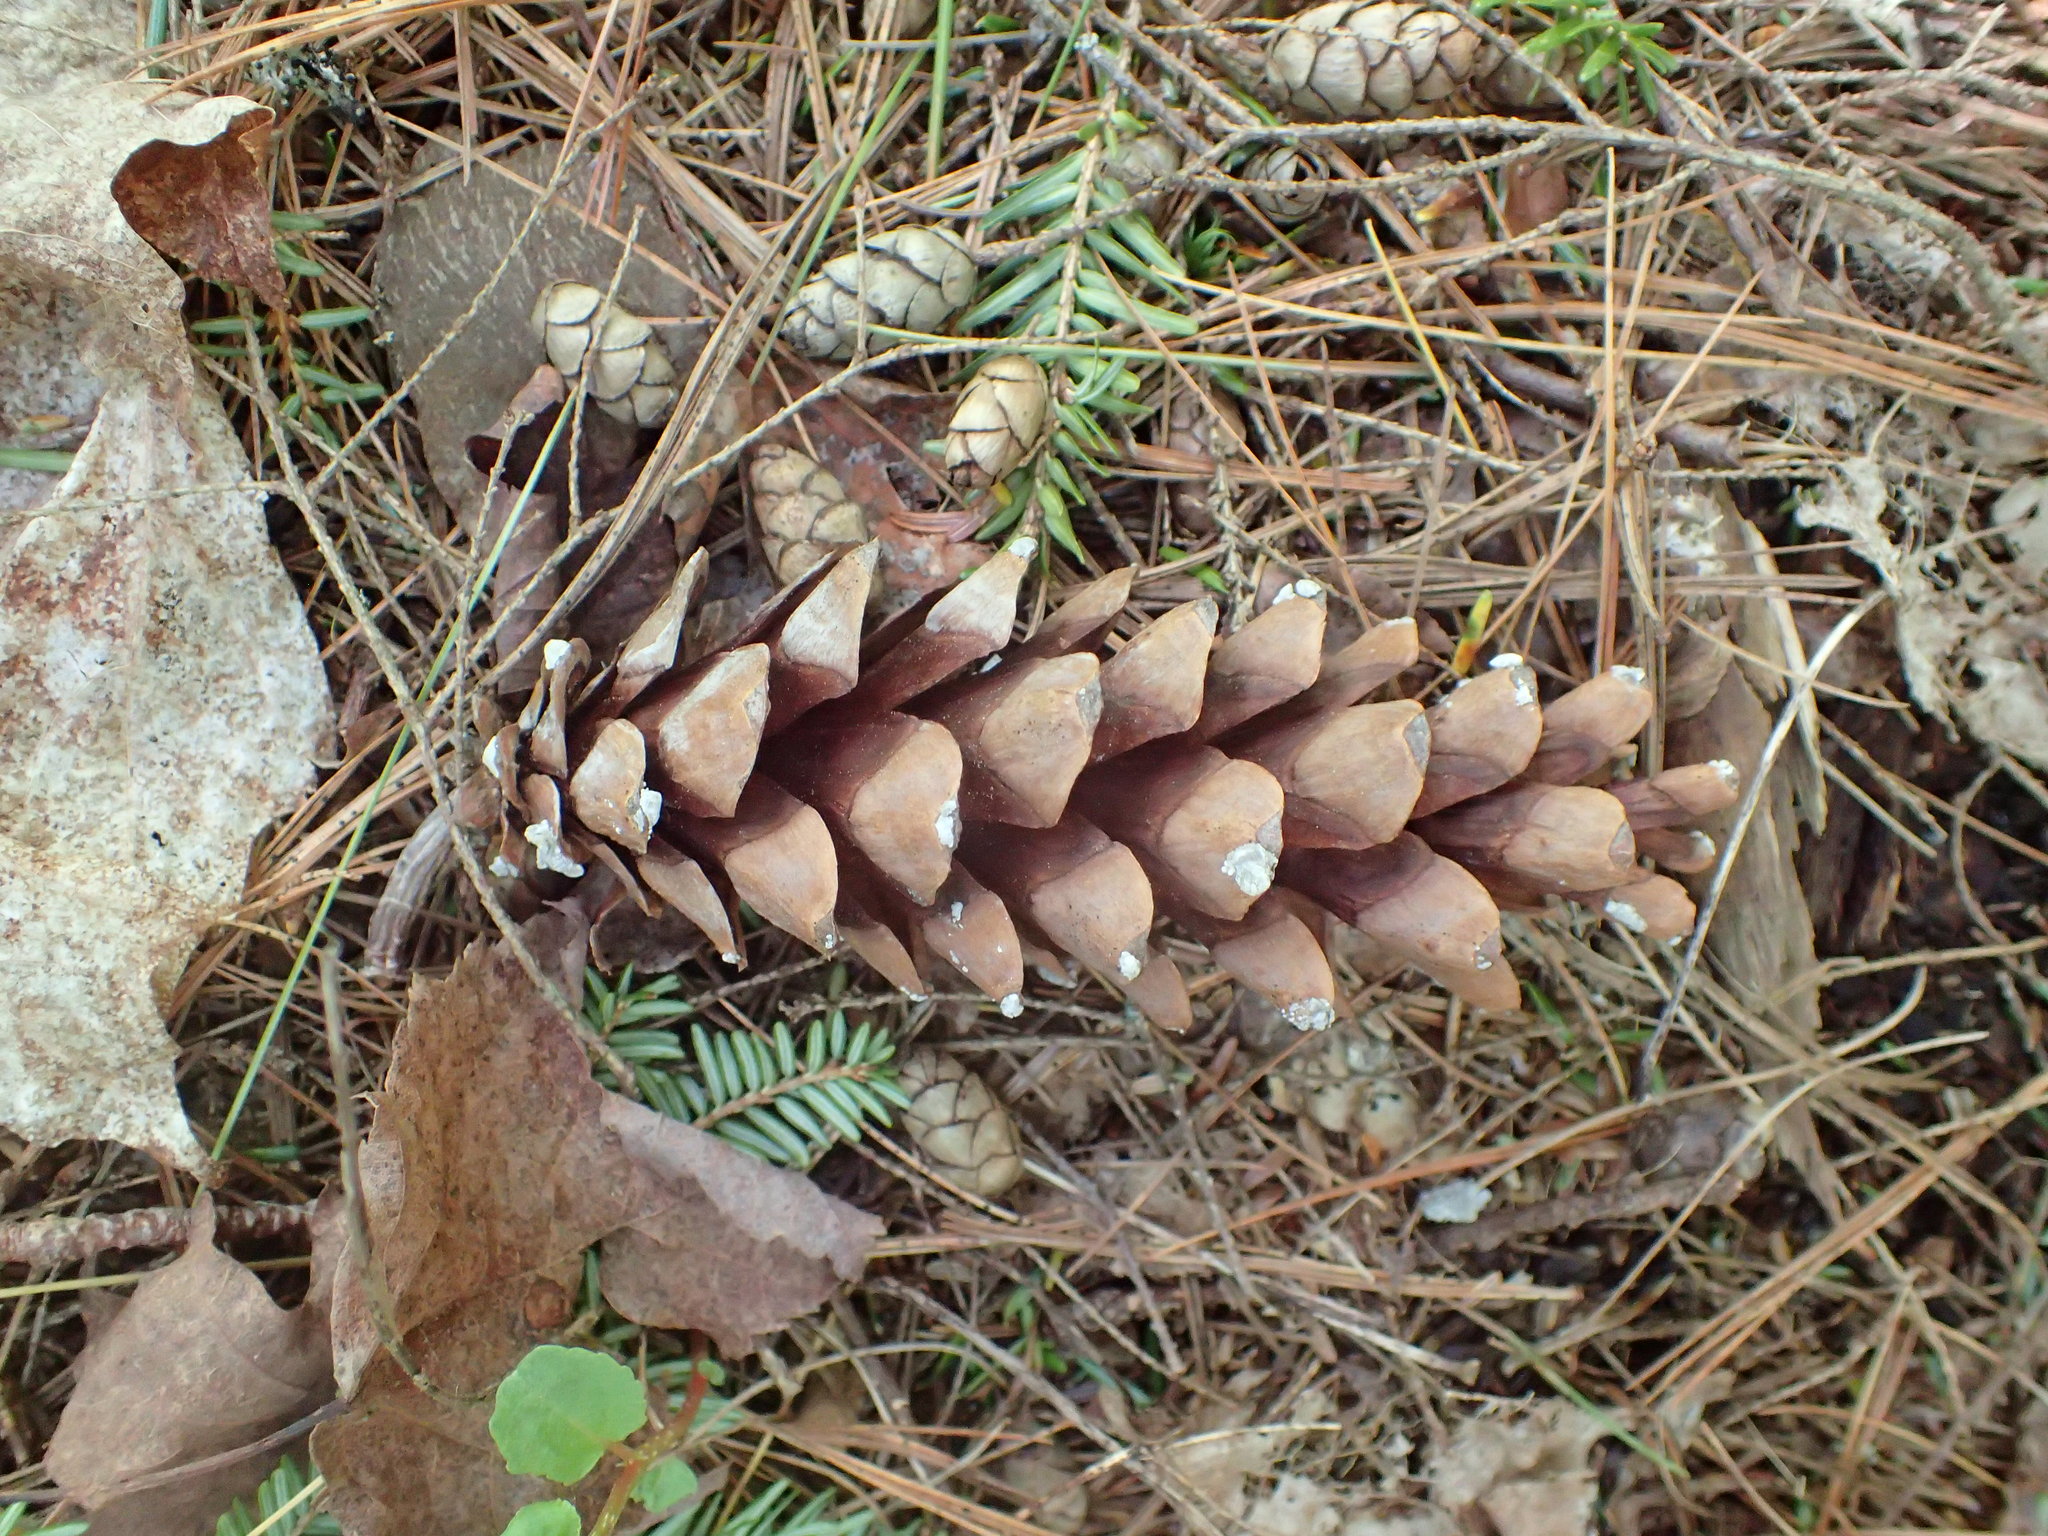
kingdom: Plantae
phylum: Tracheophyta
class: Pinopsida
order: Pinales
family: Pinaceae
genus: Pinus
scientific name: Pinus strobus
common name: Weymouth pine
